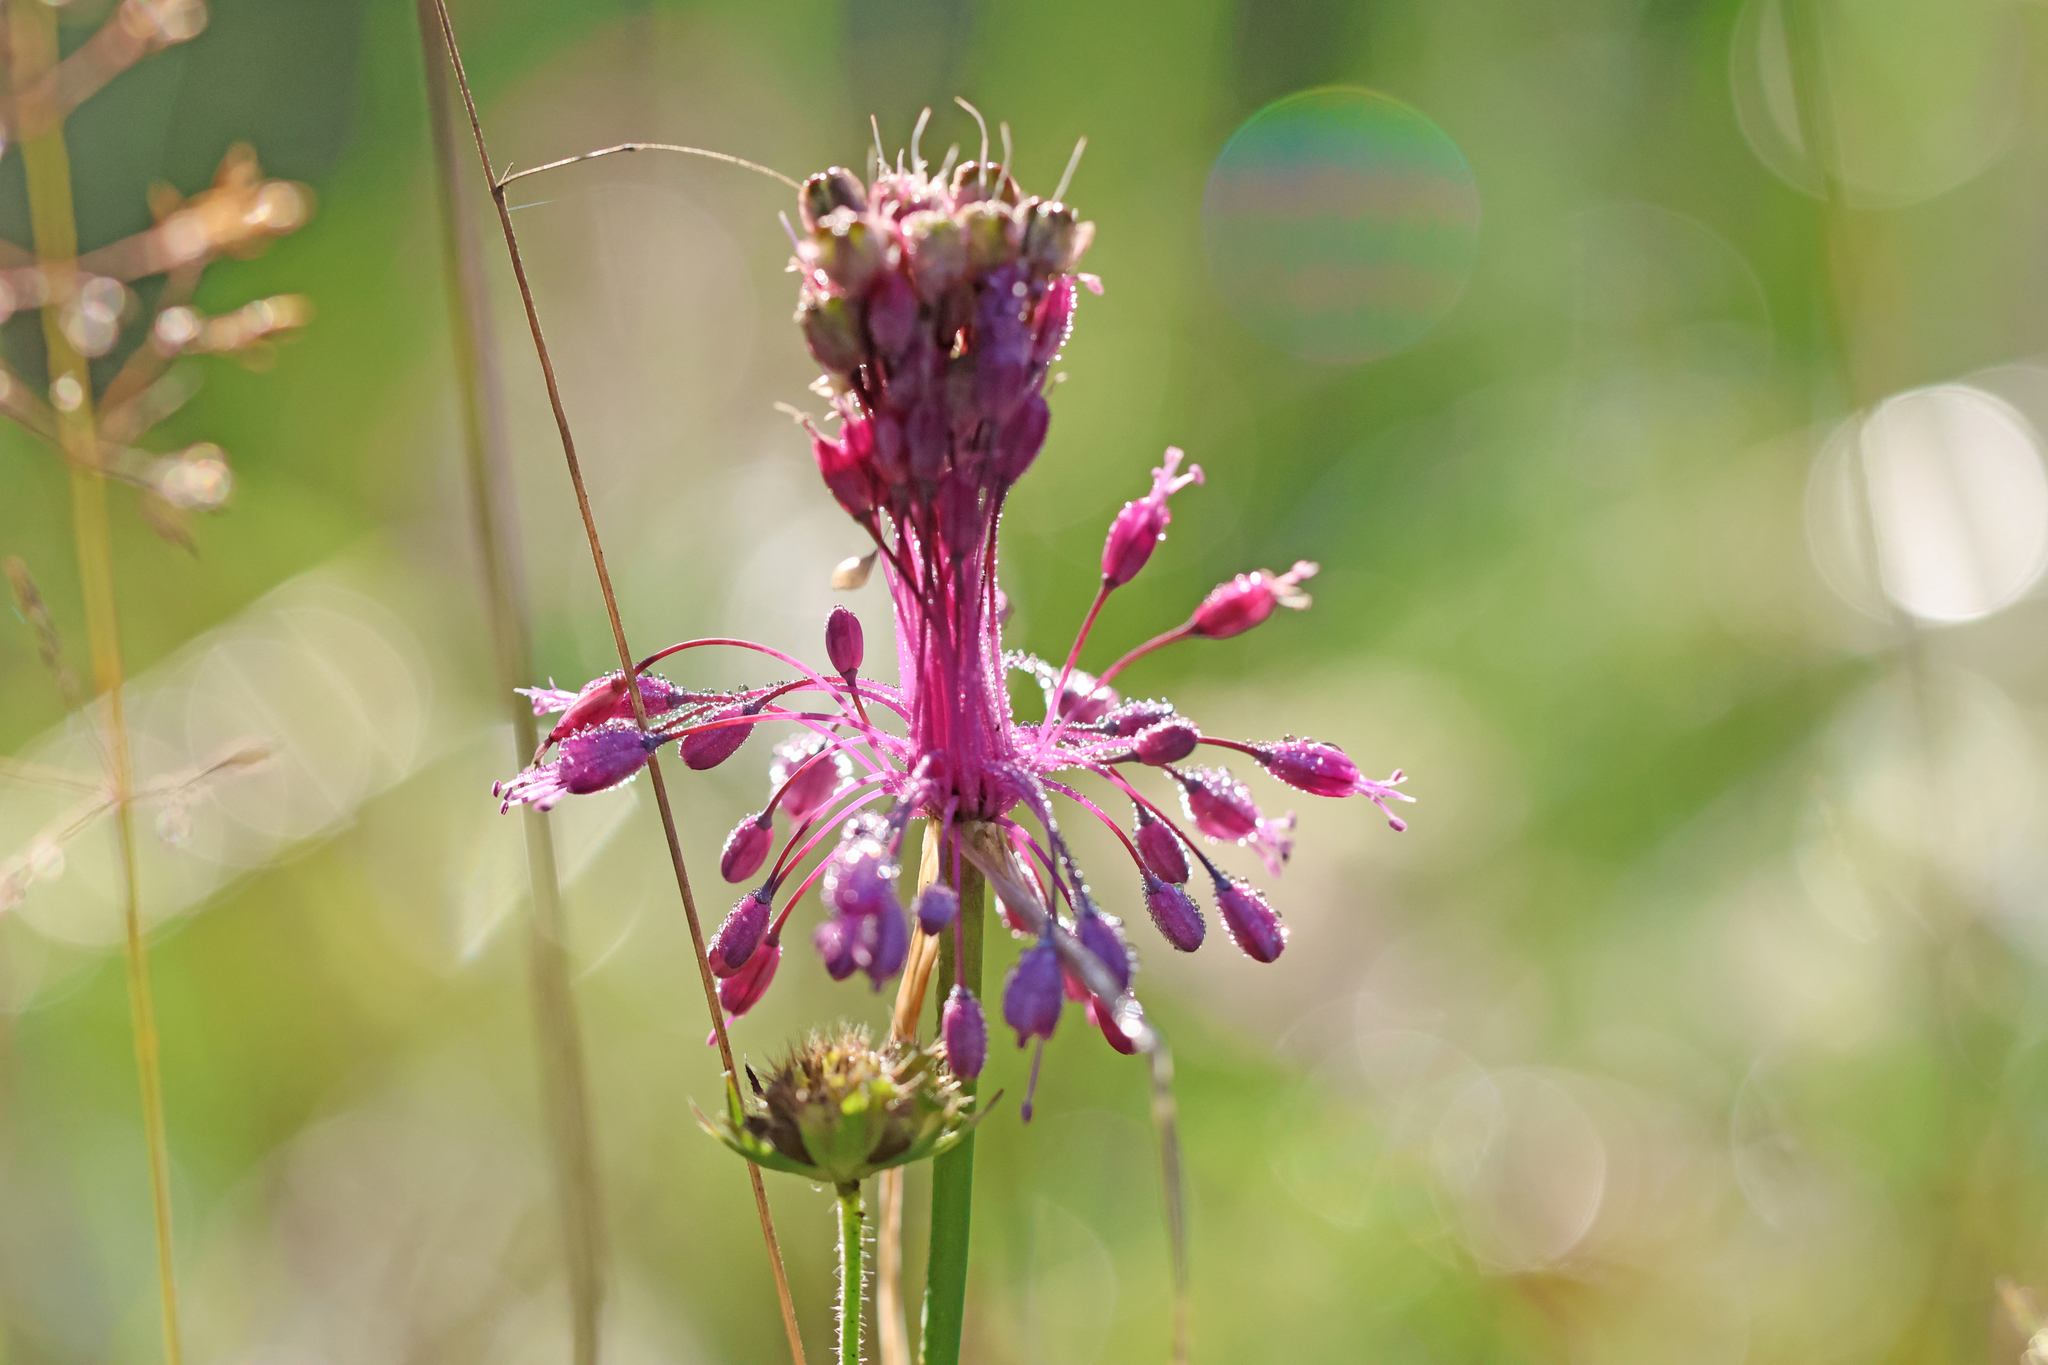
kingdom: Plantae
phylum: Tracheophyta
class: Liliopsida
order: Asparagales
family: Amaryllidaceae
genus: Allium
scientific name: Allium coloratum
